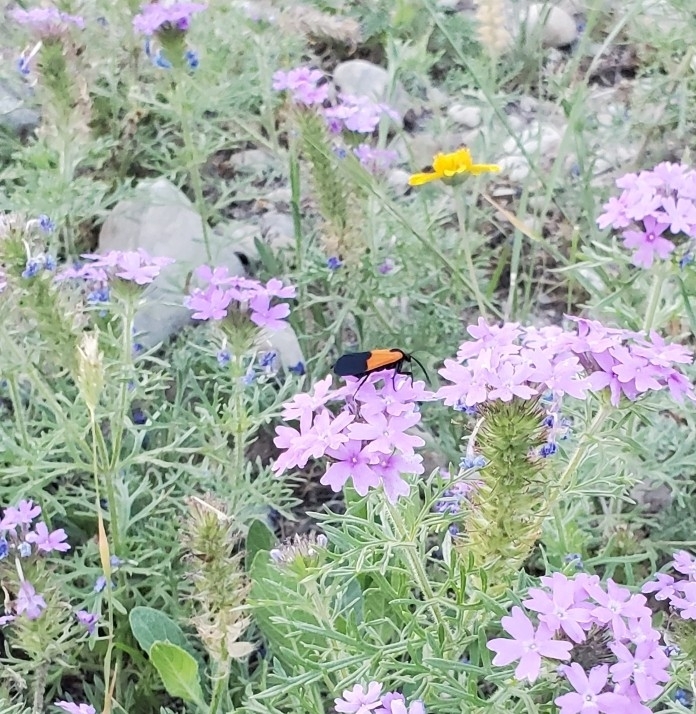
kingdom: Animalia
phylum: Arthropoda
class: Insecta
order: Lepidoptera
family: Erebidae
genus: Lycomorpha
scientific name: Lycomorpha pholus
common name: Black-and-yellow lichen moth
